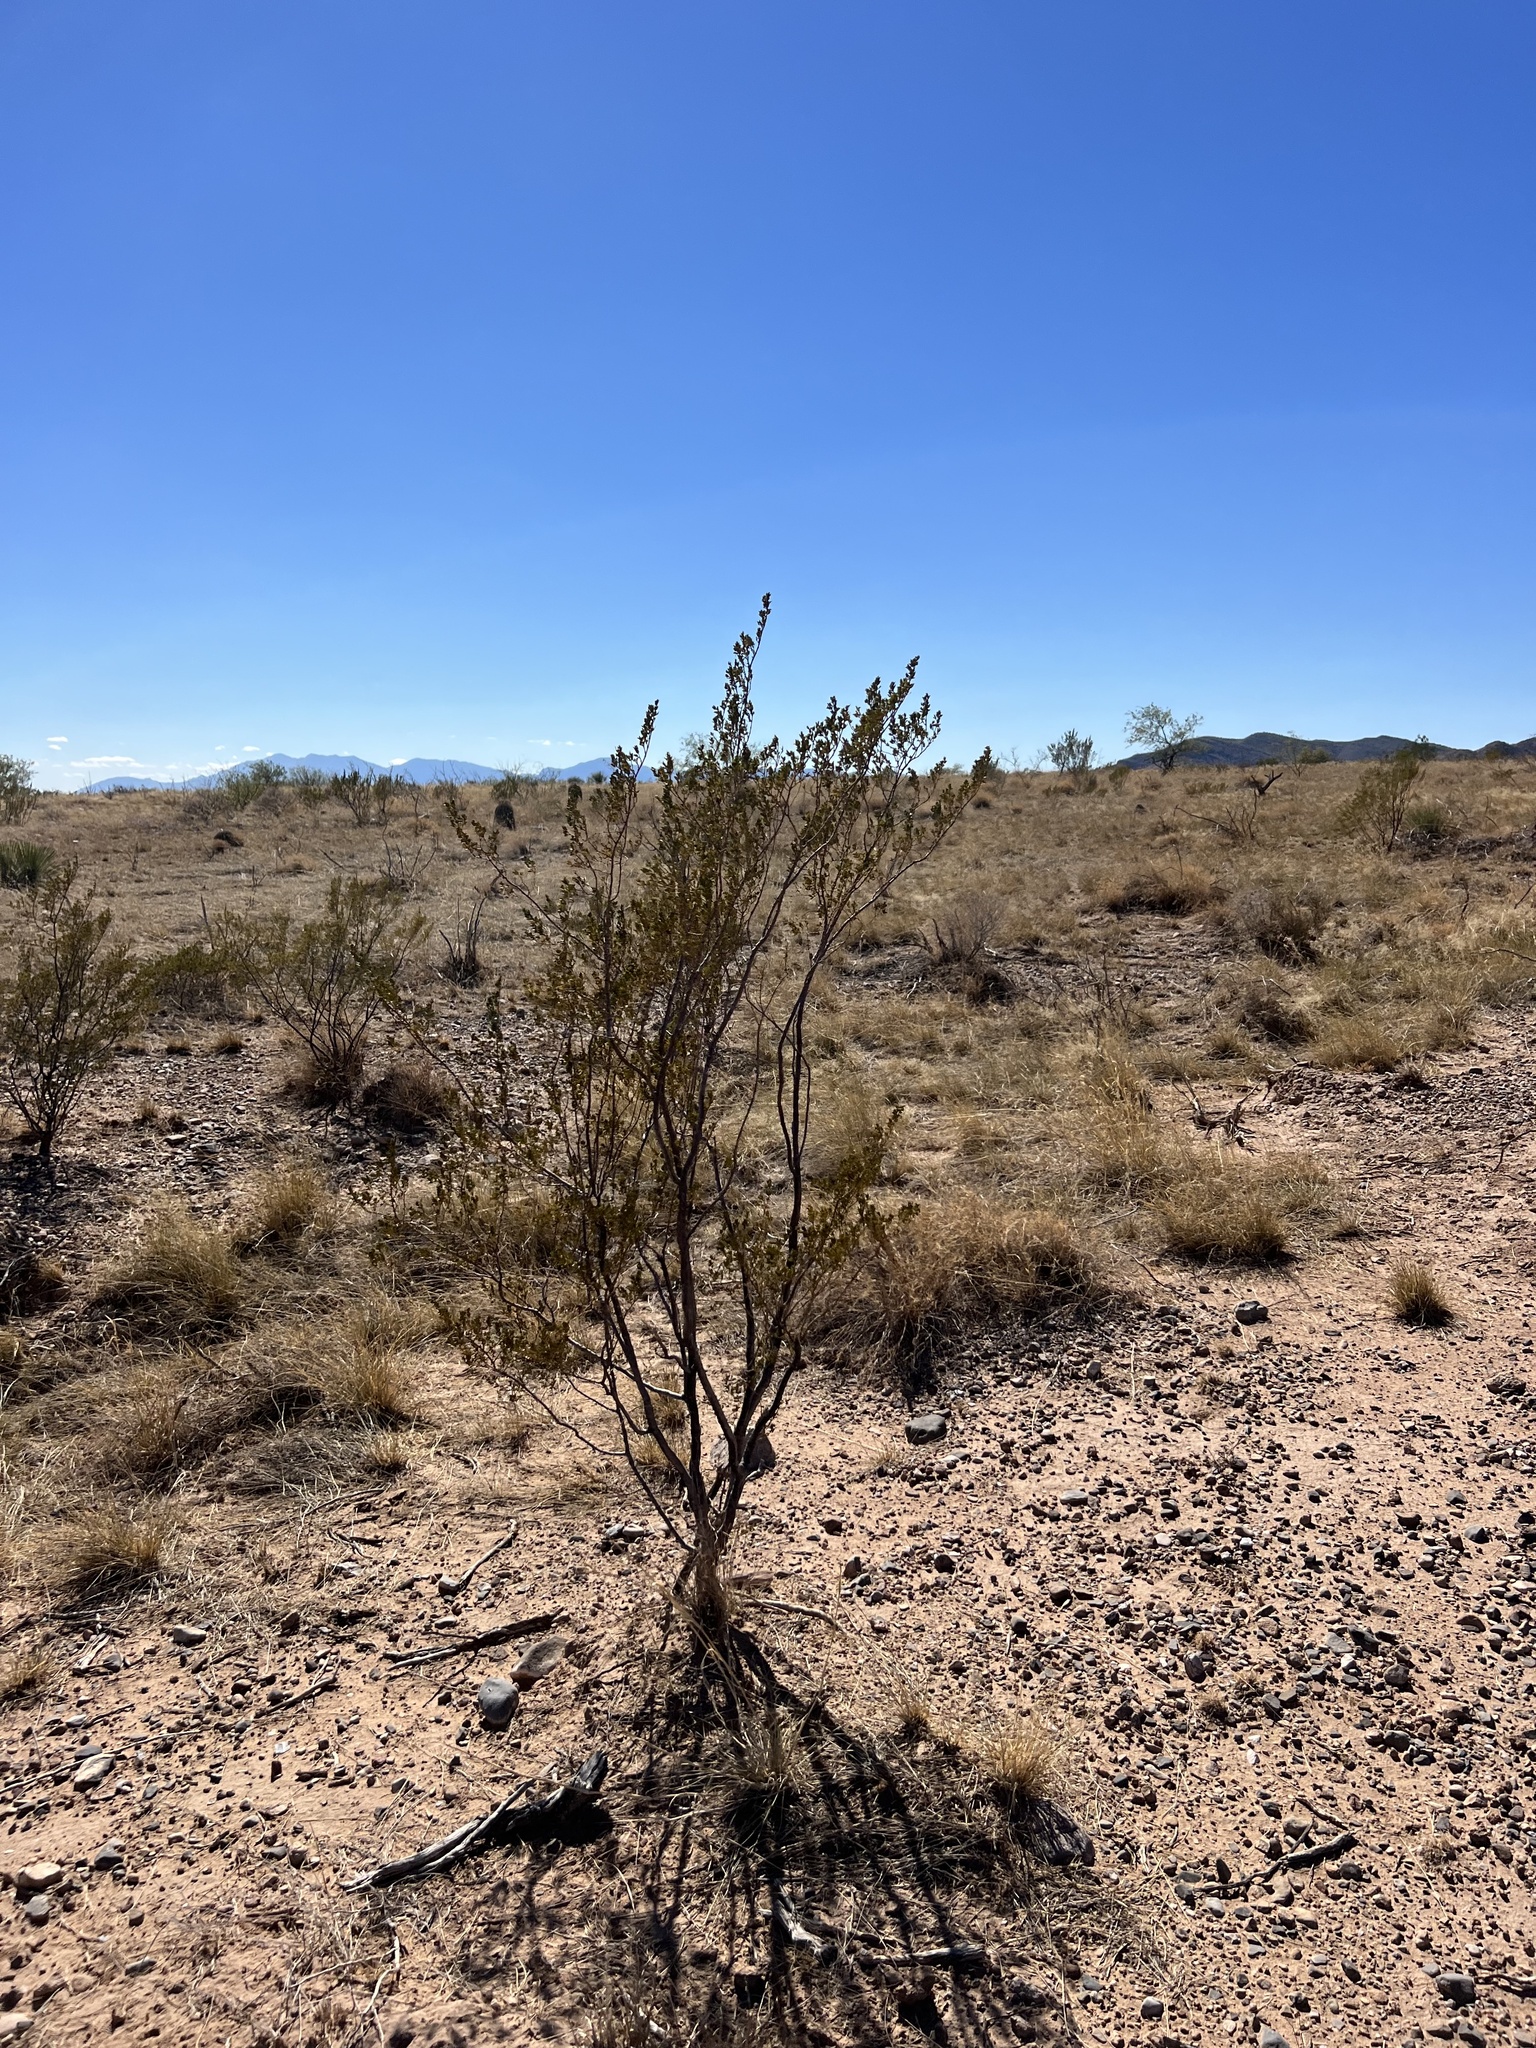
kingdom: Plantae
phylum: Tracheophyta
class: Magnoliopsida
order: Zygophyllales
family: Zygophyllaceae
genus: Larrea
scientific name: Larrea tridentata
